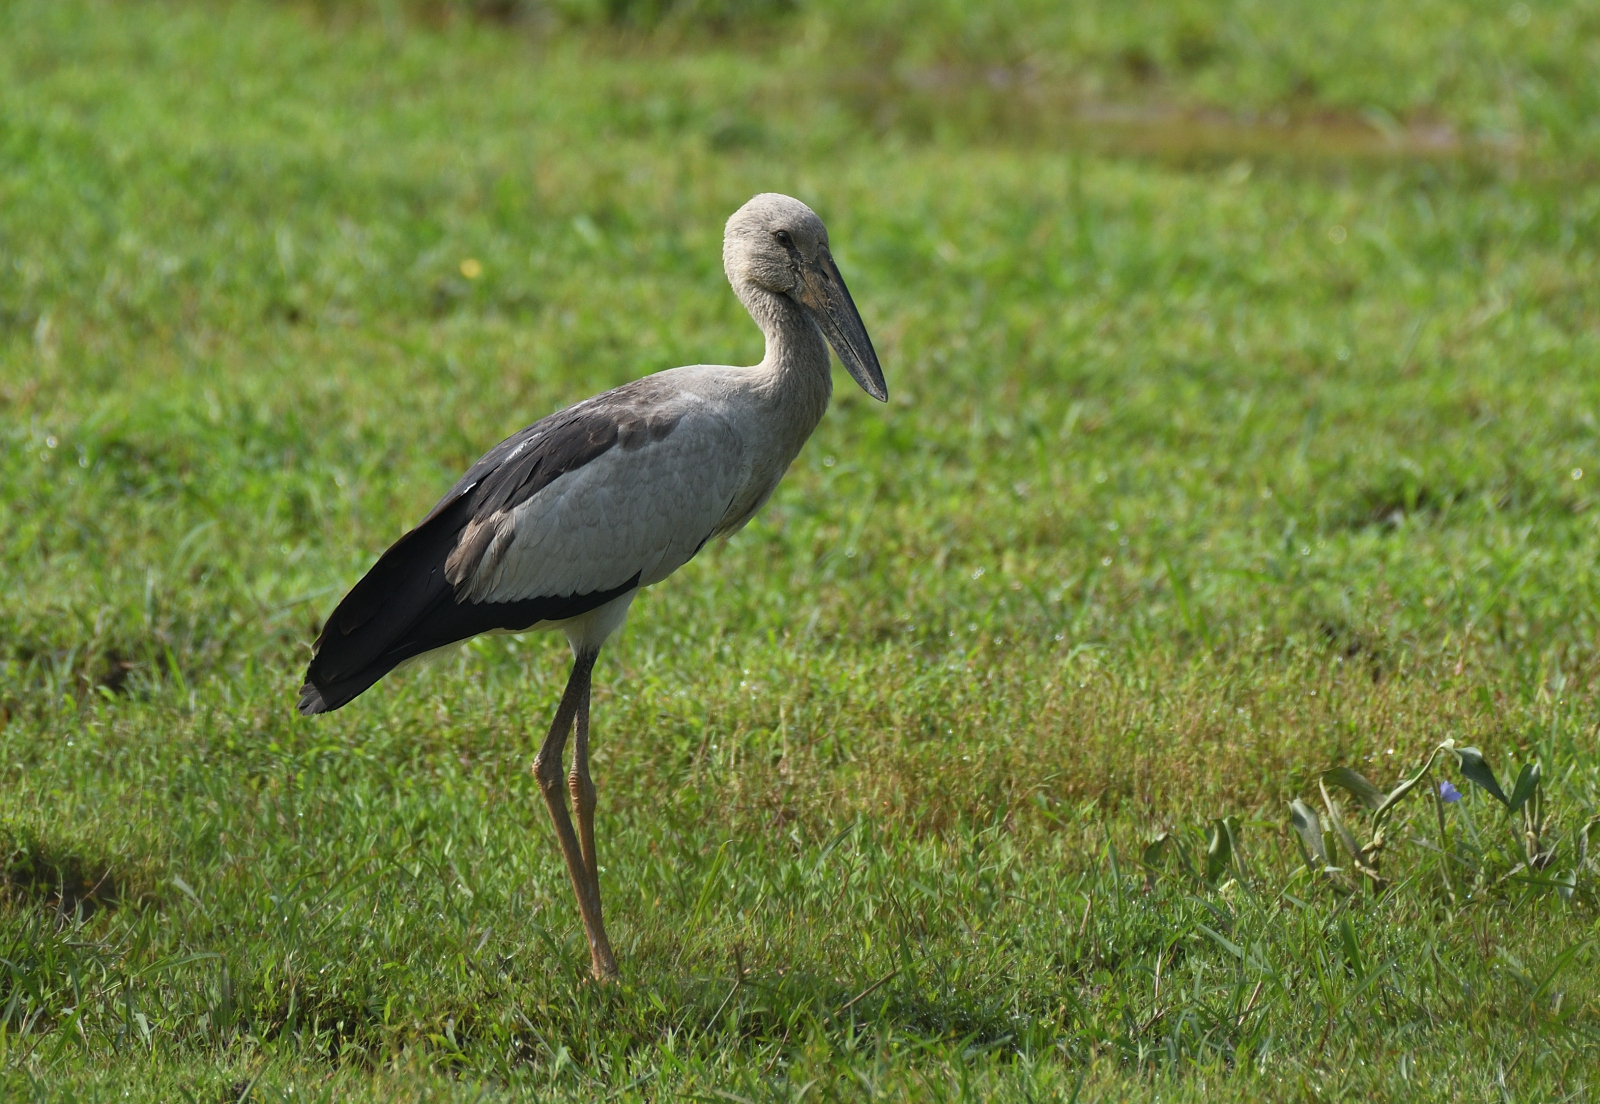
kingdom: Animalia
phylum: Chordata
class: Aves
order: Ciconiiformes
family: Ciconiidae
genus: Anastomus
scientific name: Anastomus oscitans
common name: Asian openbill
